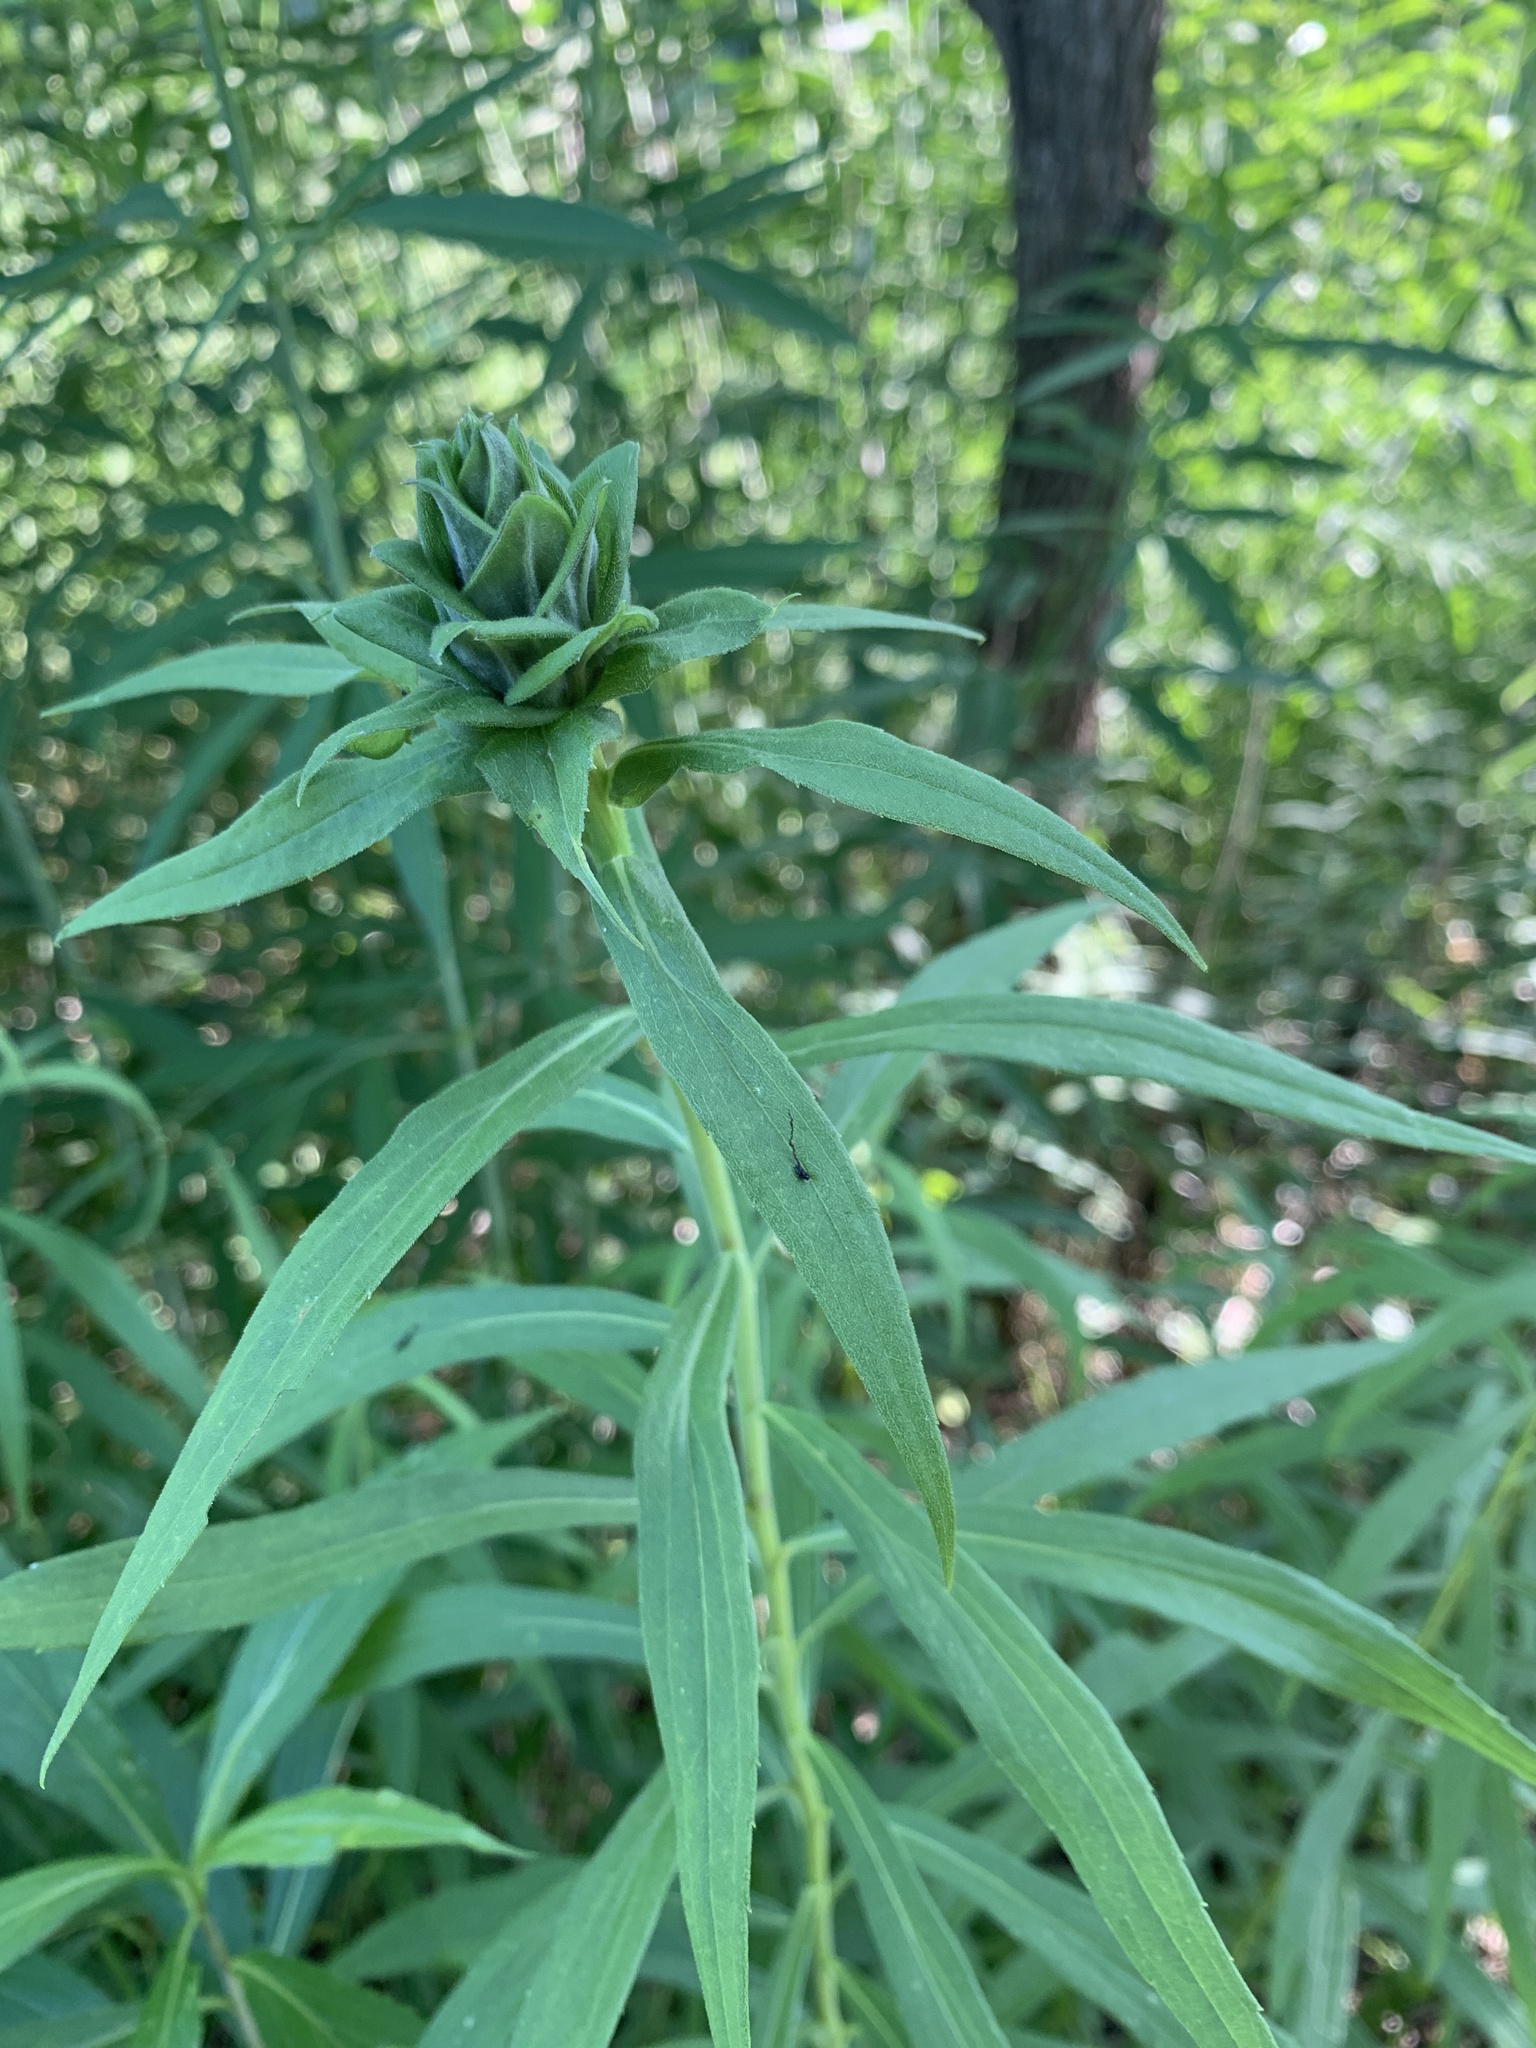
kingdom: Animalia
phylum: Arthropoda
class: Insecta
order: Diptera
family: Cecidomyiidae
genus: Rhopalomyia
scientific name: Rhopalomyia solidaginis
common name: Goldenrod bunch gall midge
